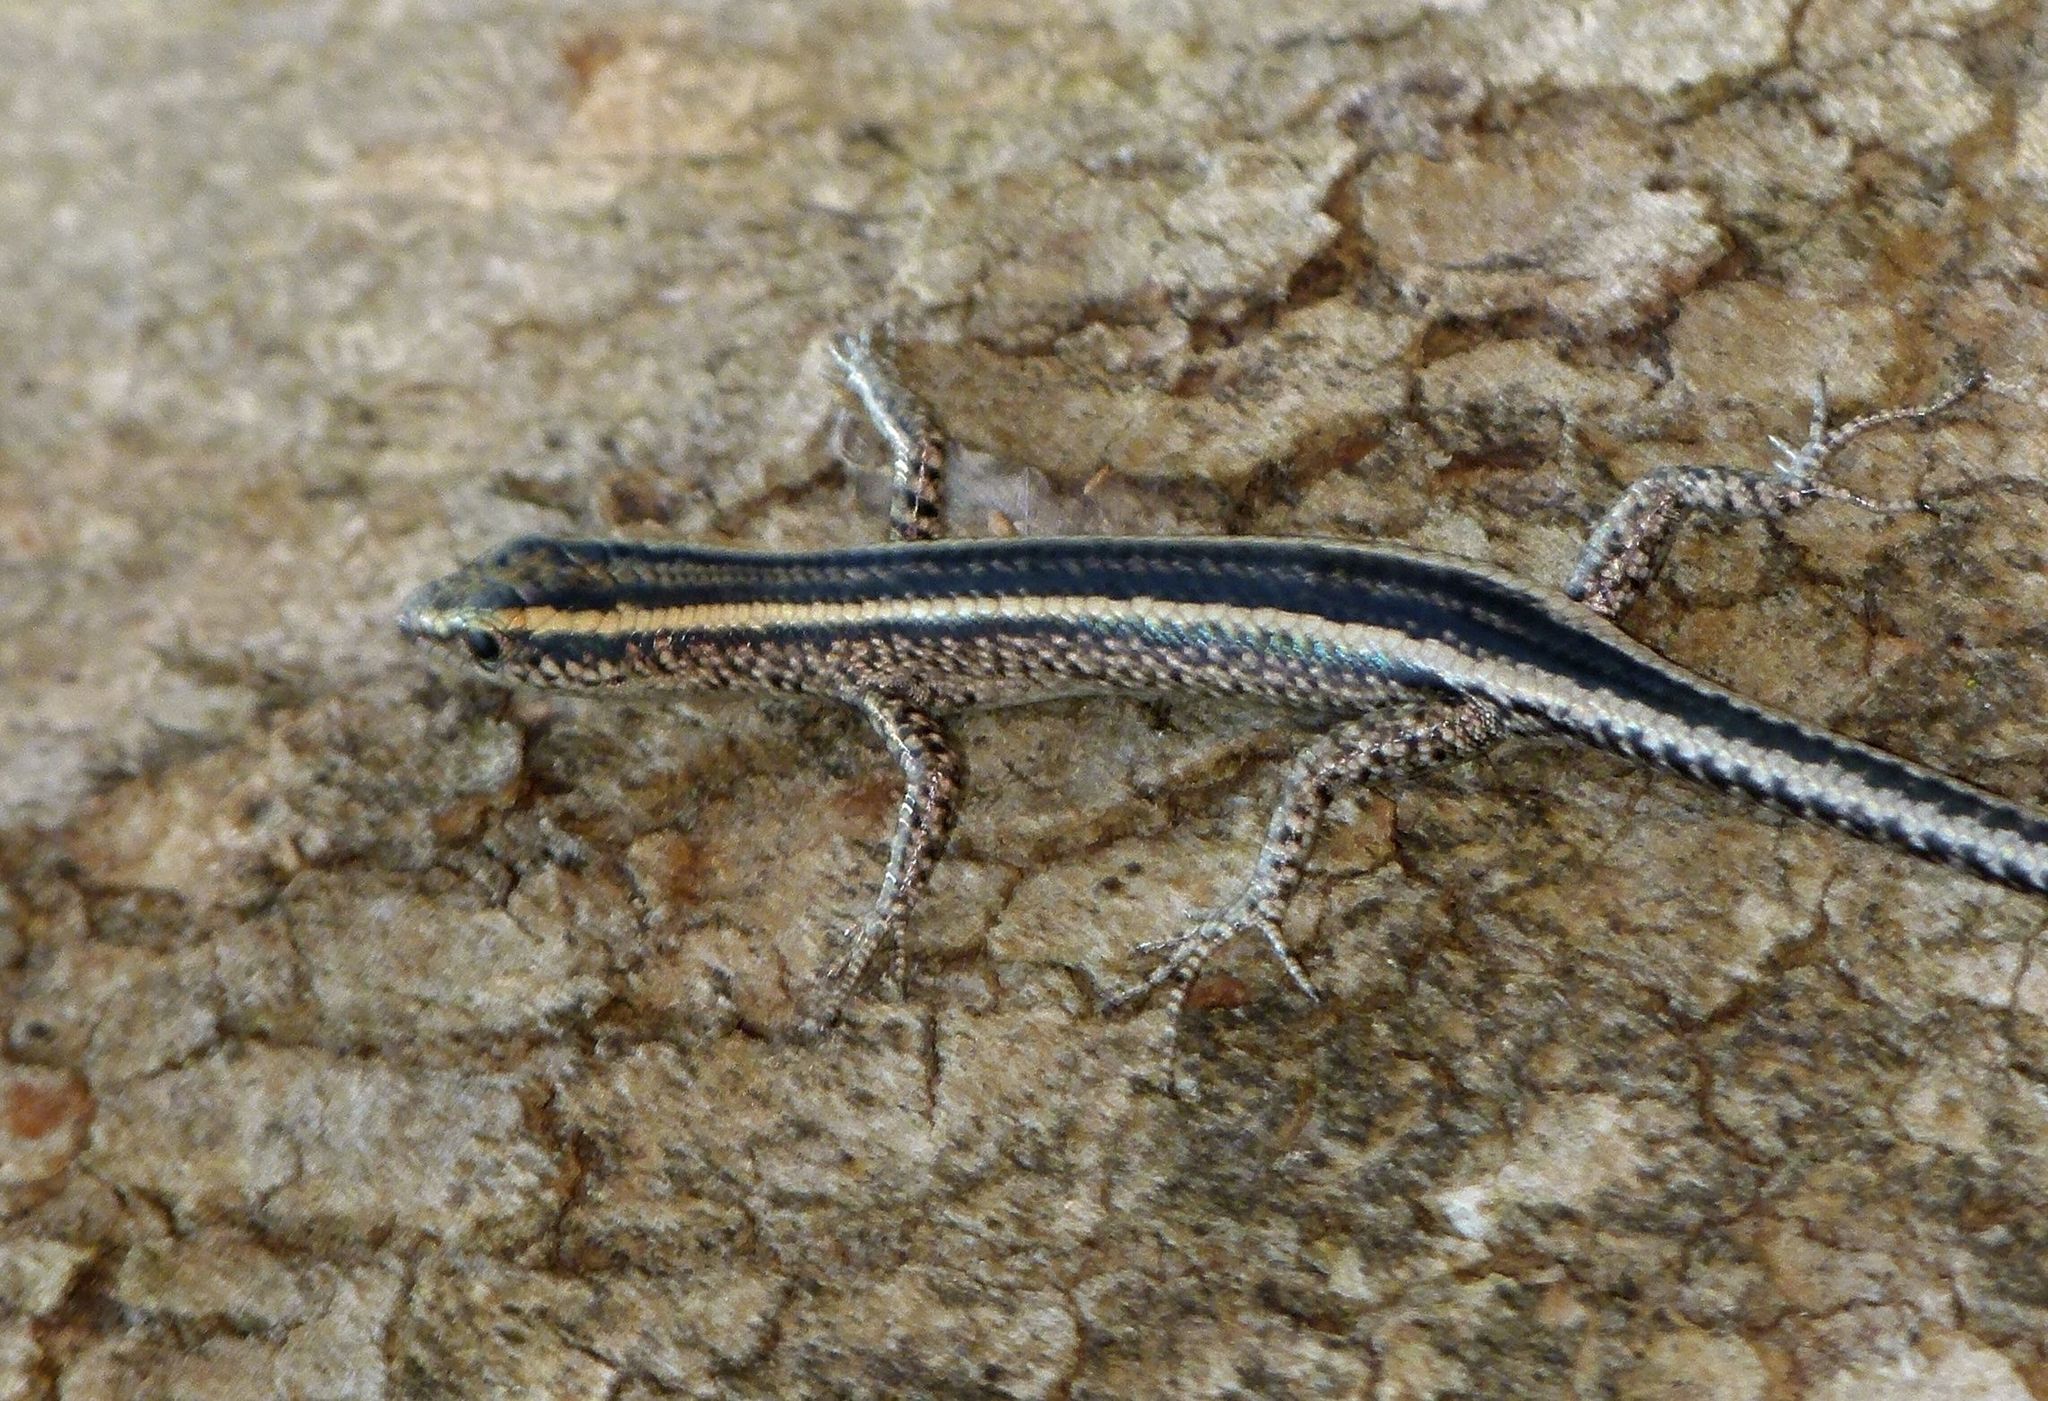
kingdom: Animalia
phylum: Chordata
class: Squamata
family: Scincidae
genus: Cryptoblepharus
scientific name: Cryptoblepharus pulcher
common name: Elegant snake-eyed skink
